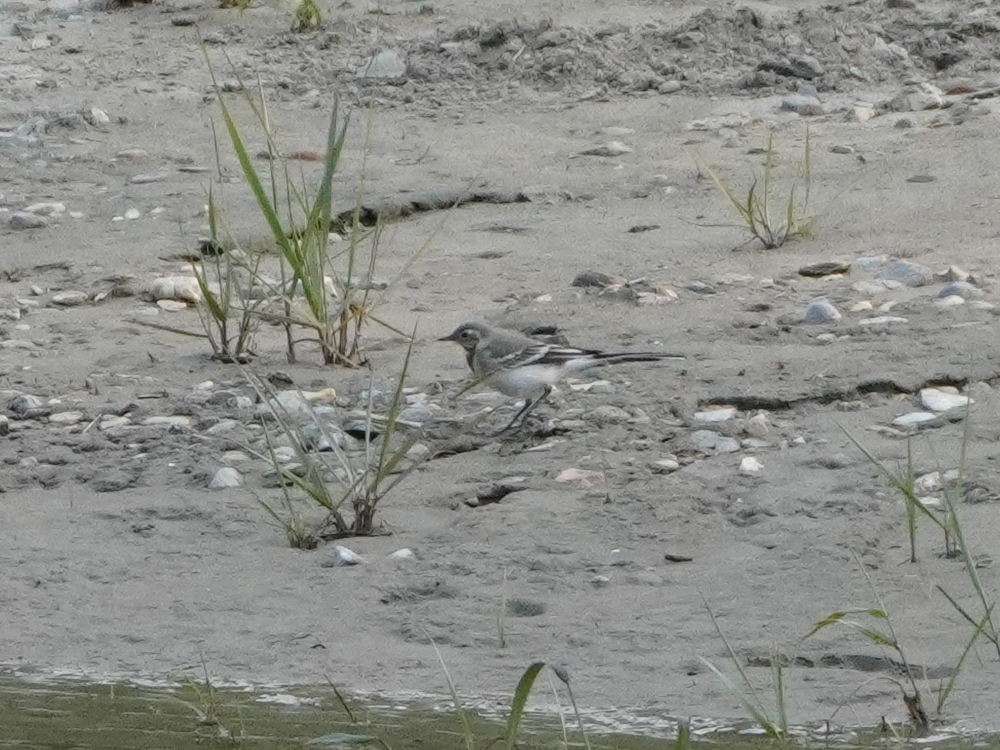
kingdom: Animalia
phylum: Chordata
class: Aves
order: Passeriformes
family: Motacillidae
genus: Motacilla
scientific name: Motacilla alba
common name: White wagtail
